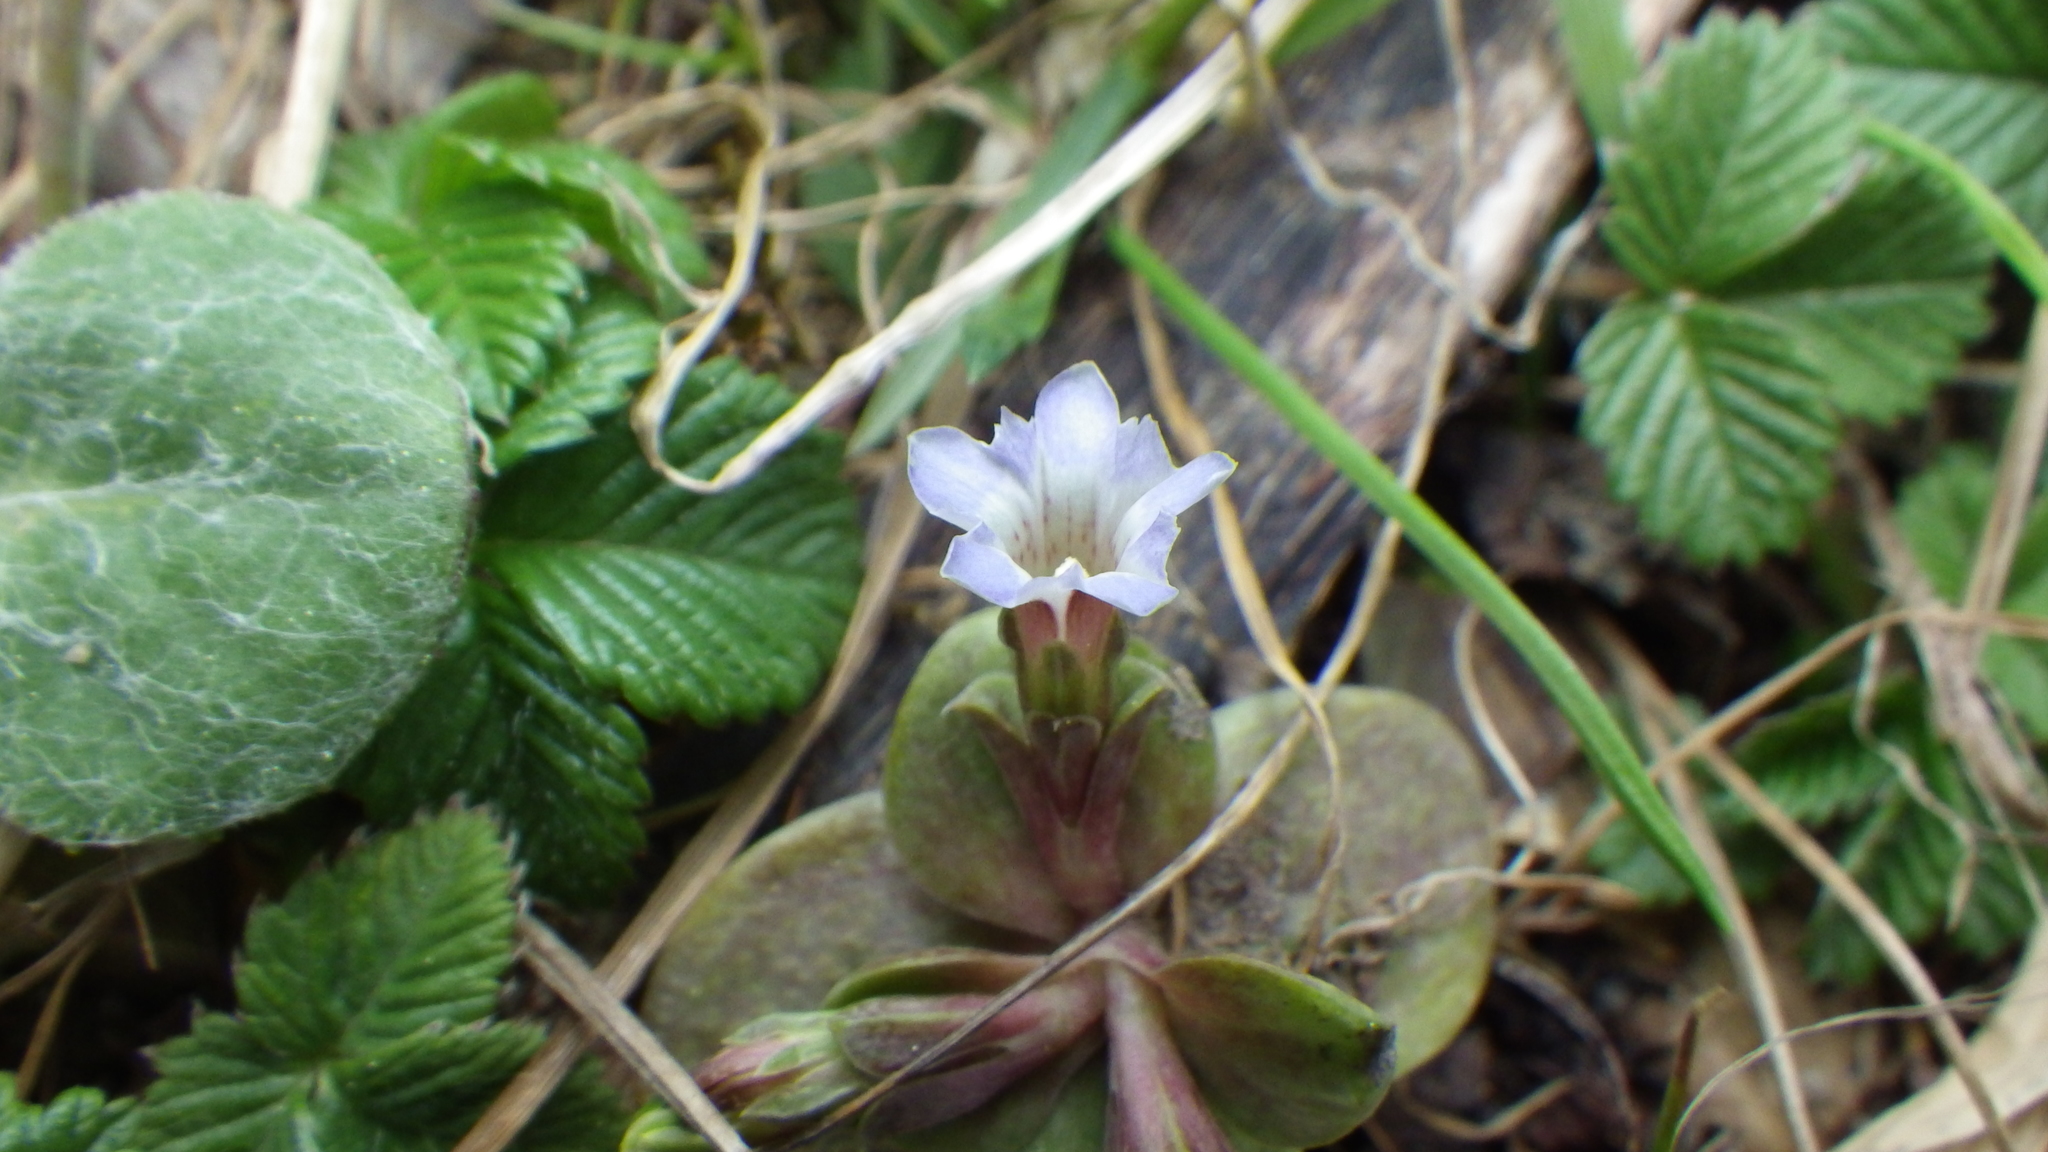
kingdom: Plantae
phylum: Tracheophyta
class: Magnoliopsida
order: Gentianales
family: Gentianaceae
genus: Gentiana
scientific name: Gentiana aquatica
